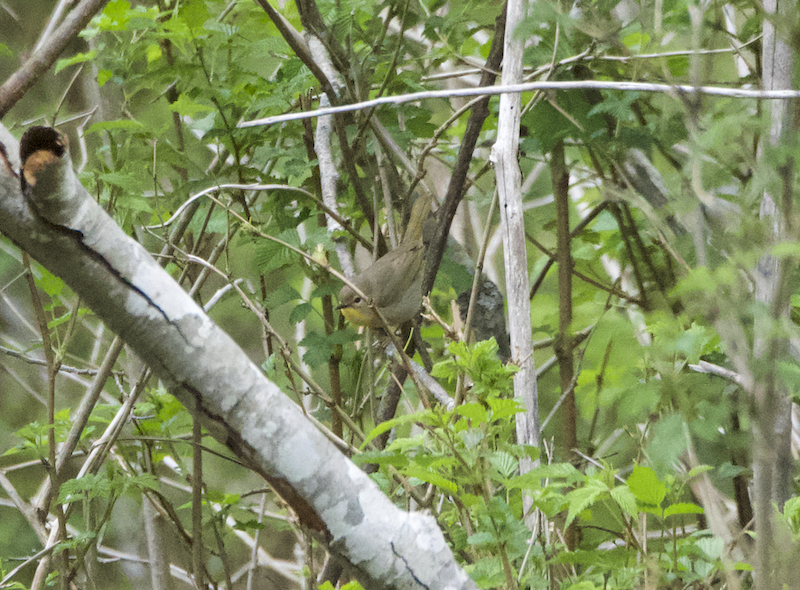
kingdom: Animalia
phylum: Chordata
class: Aves
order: Passeriformes
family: Parulidae
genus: Geothlypis
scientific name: Geothlypis trichas
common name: Common yellowthroat
